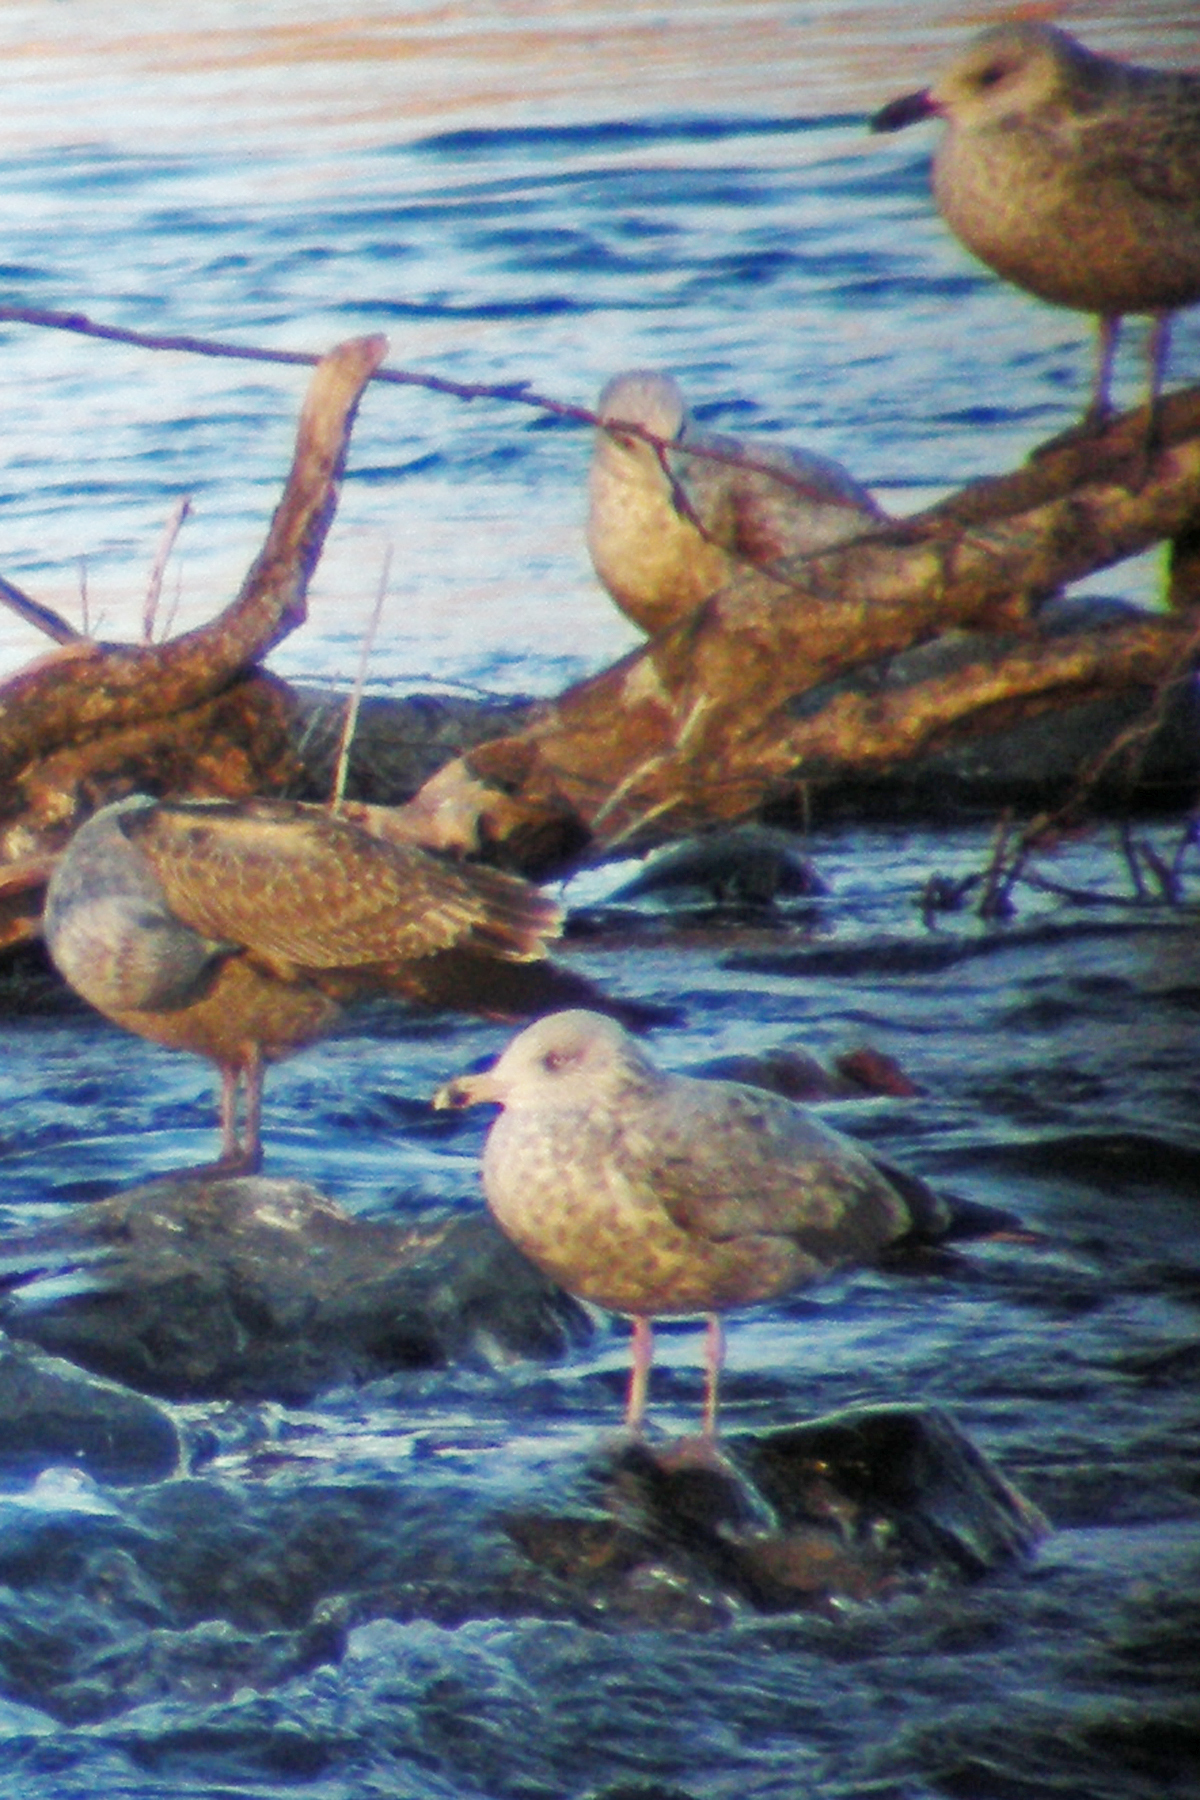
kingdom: Animalia
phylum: Chordata
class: Aves
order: Charadriiformes
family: Laridae
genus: Larus
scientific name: Larus argentatus
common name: Herring gull
